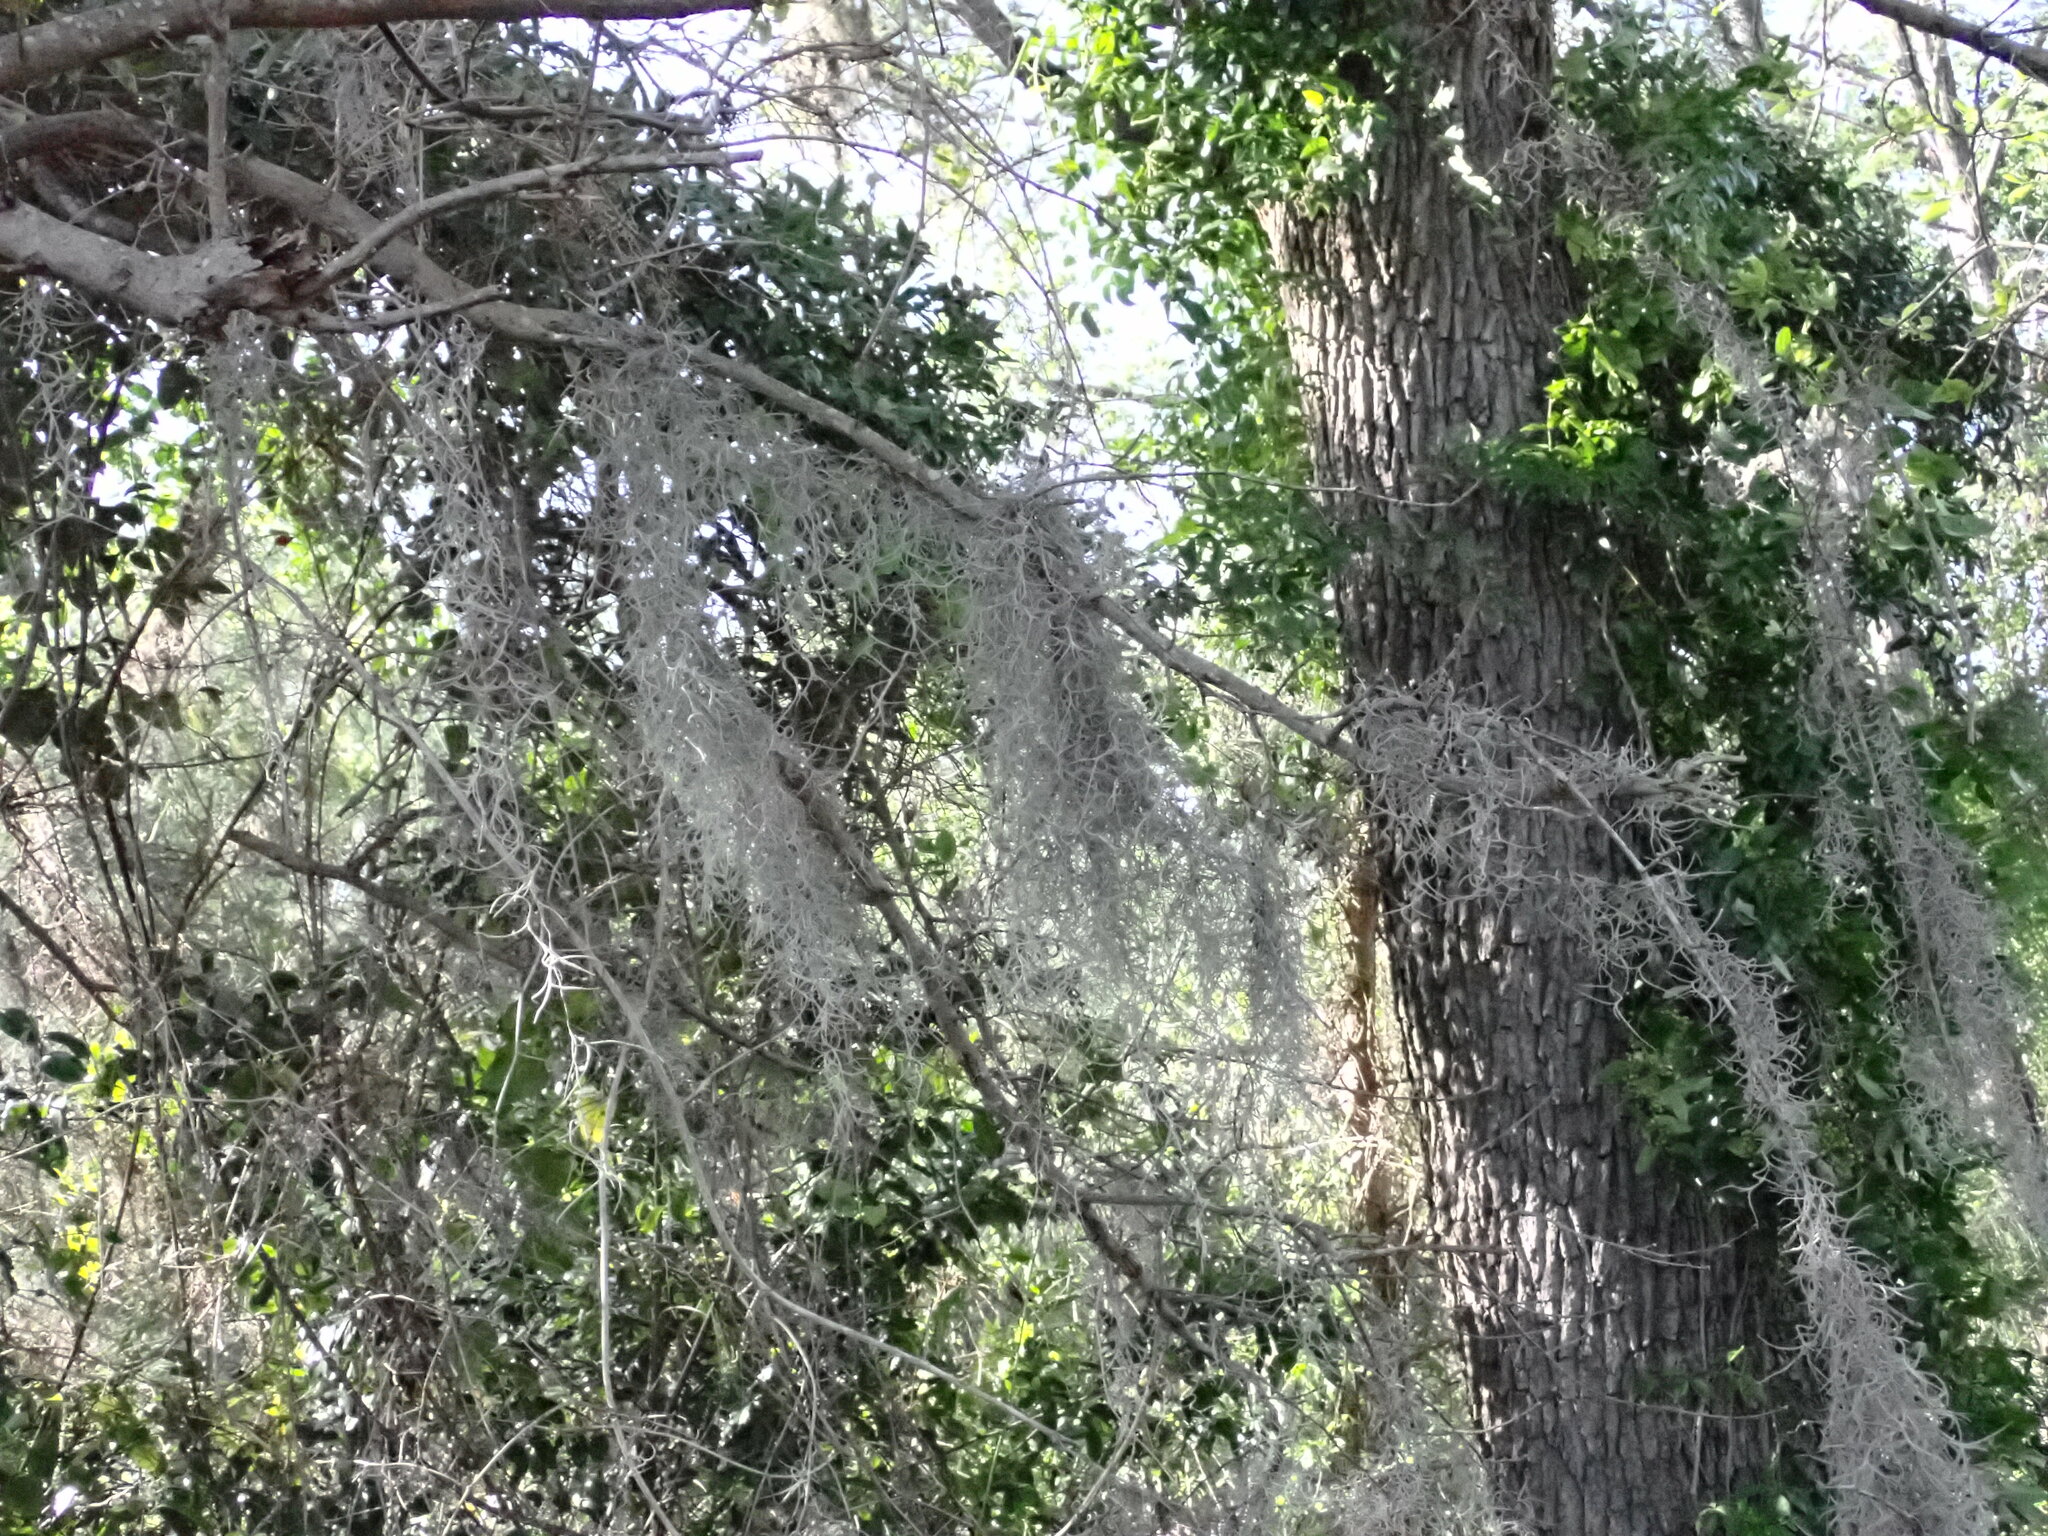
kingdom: Plantae
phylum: Tracheophyta
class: Liliopsida
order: Poales
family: Bromeliaceae
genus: Tillandsia
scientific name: Tillandsia usneoides
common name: Spanish moss
